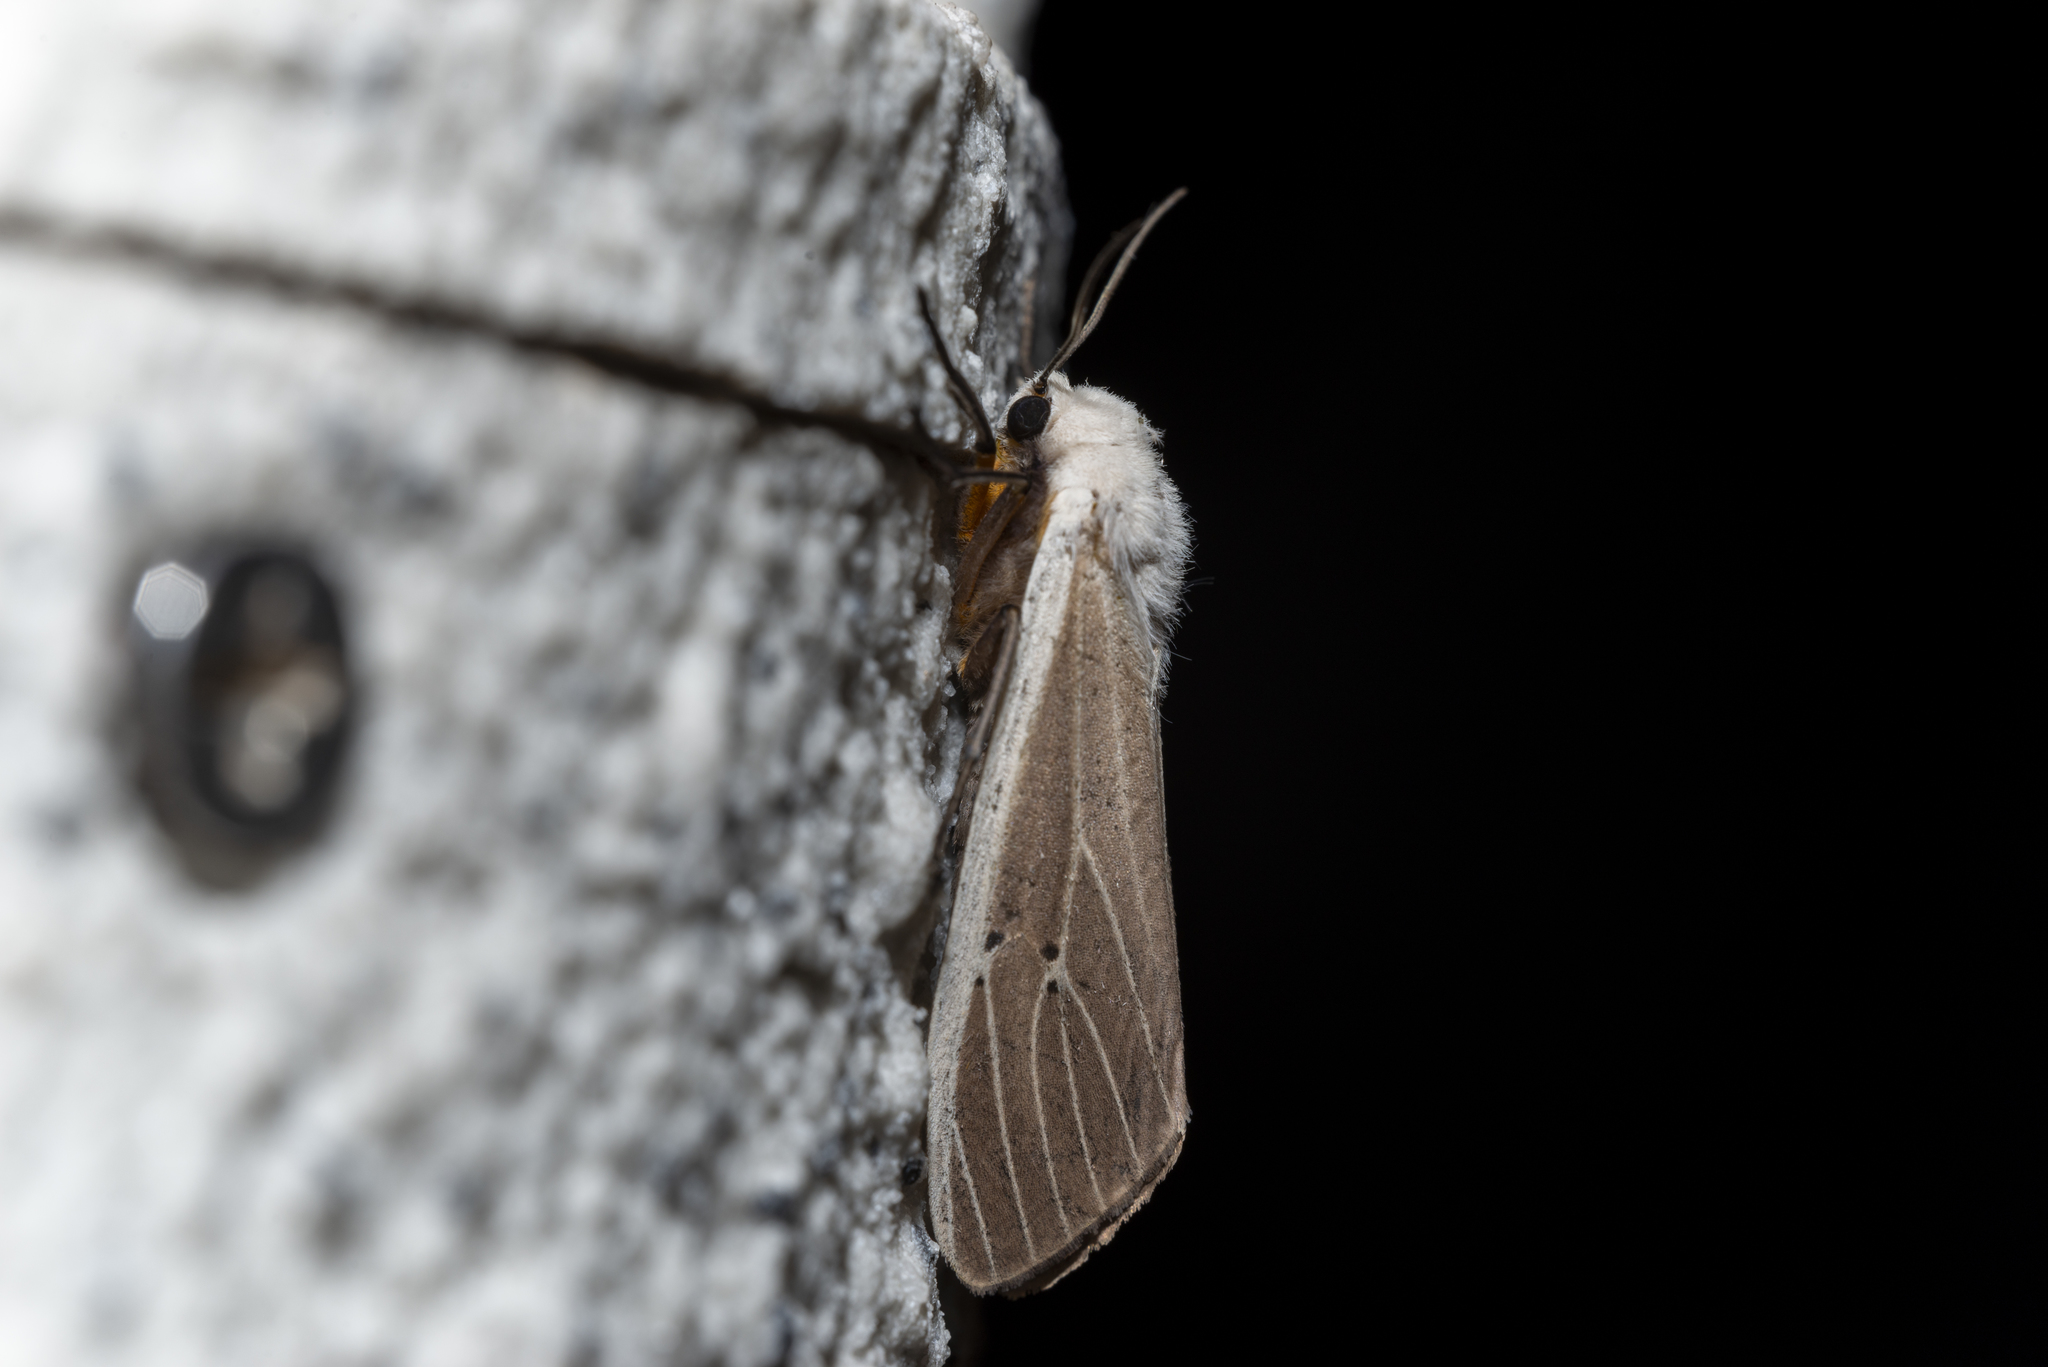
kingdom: Animalia
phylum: Arthropoda
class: Insecta
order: Lepidoptera
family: Erebidae
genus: Creatonotos
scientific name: Creatonotos transiens
